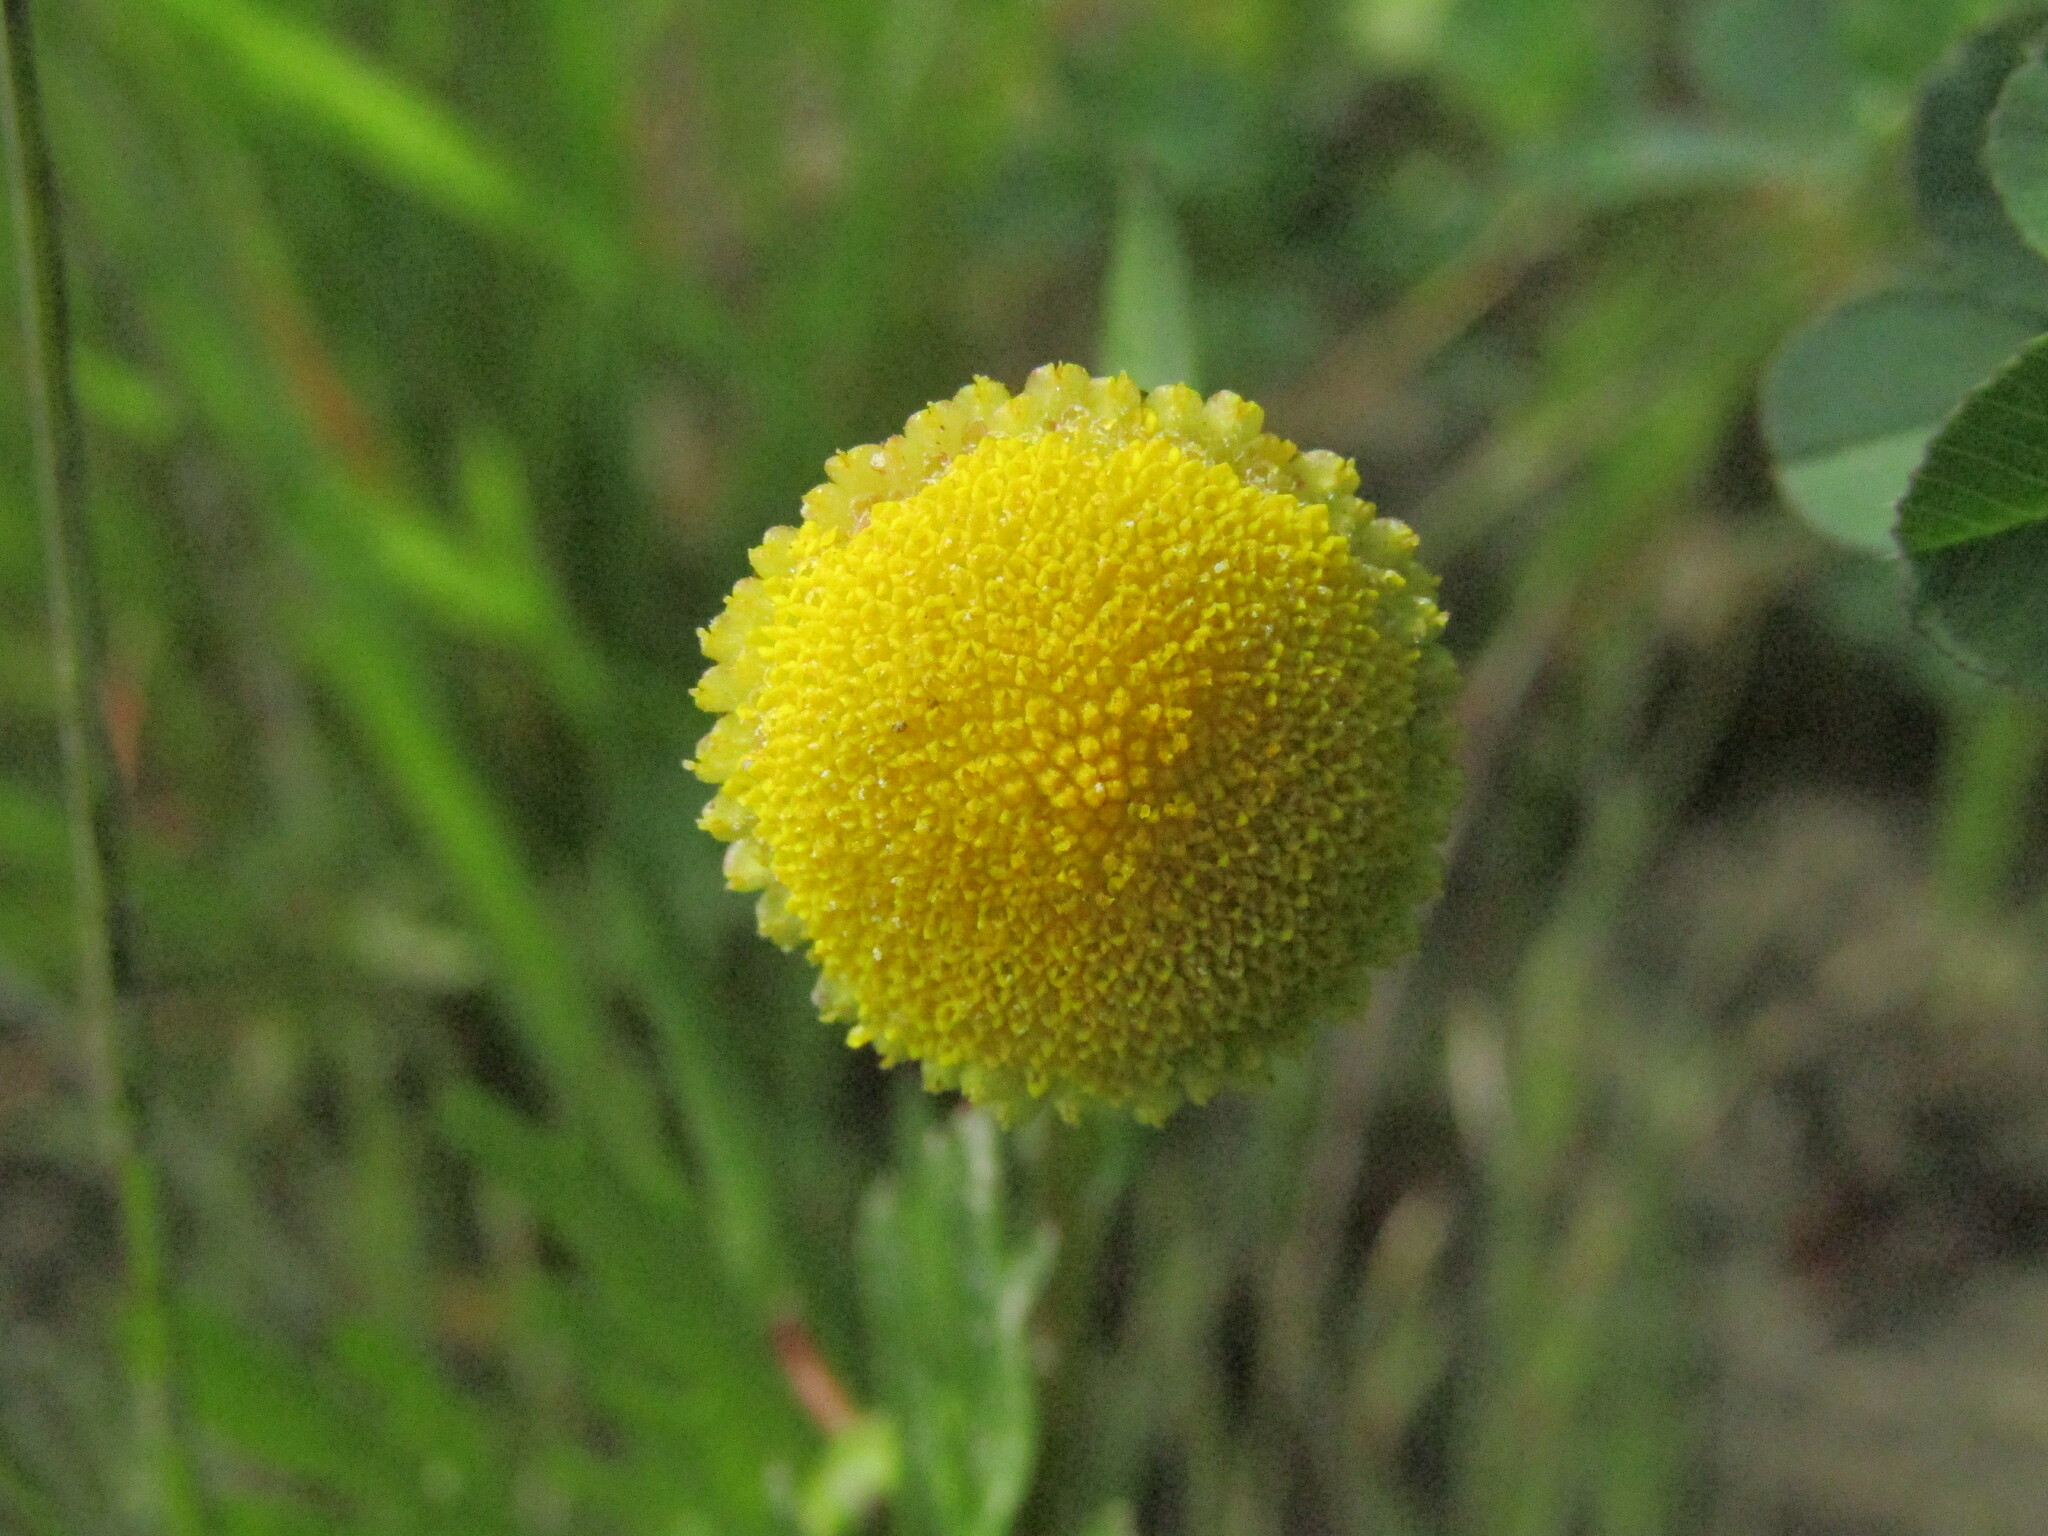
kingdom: Plantae
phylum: Tracheophyta
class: Magnoliopsida
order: Asterales
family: Asteraceae
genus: Cotula
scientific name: Cotula coronopifolia
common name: Buttonweed
